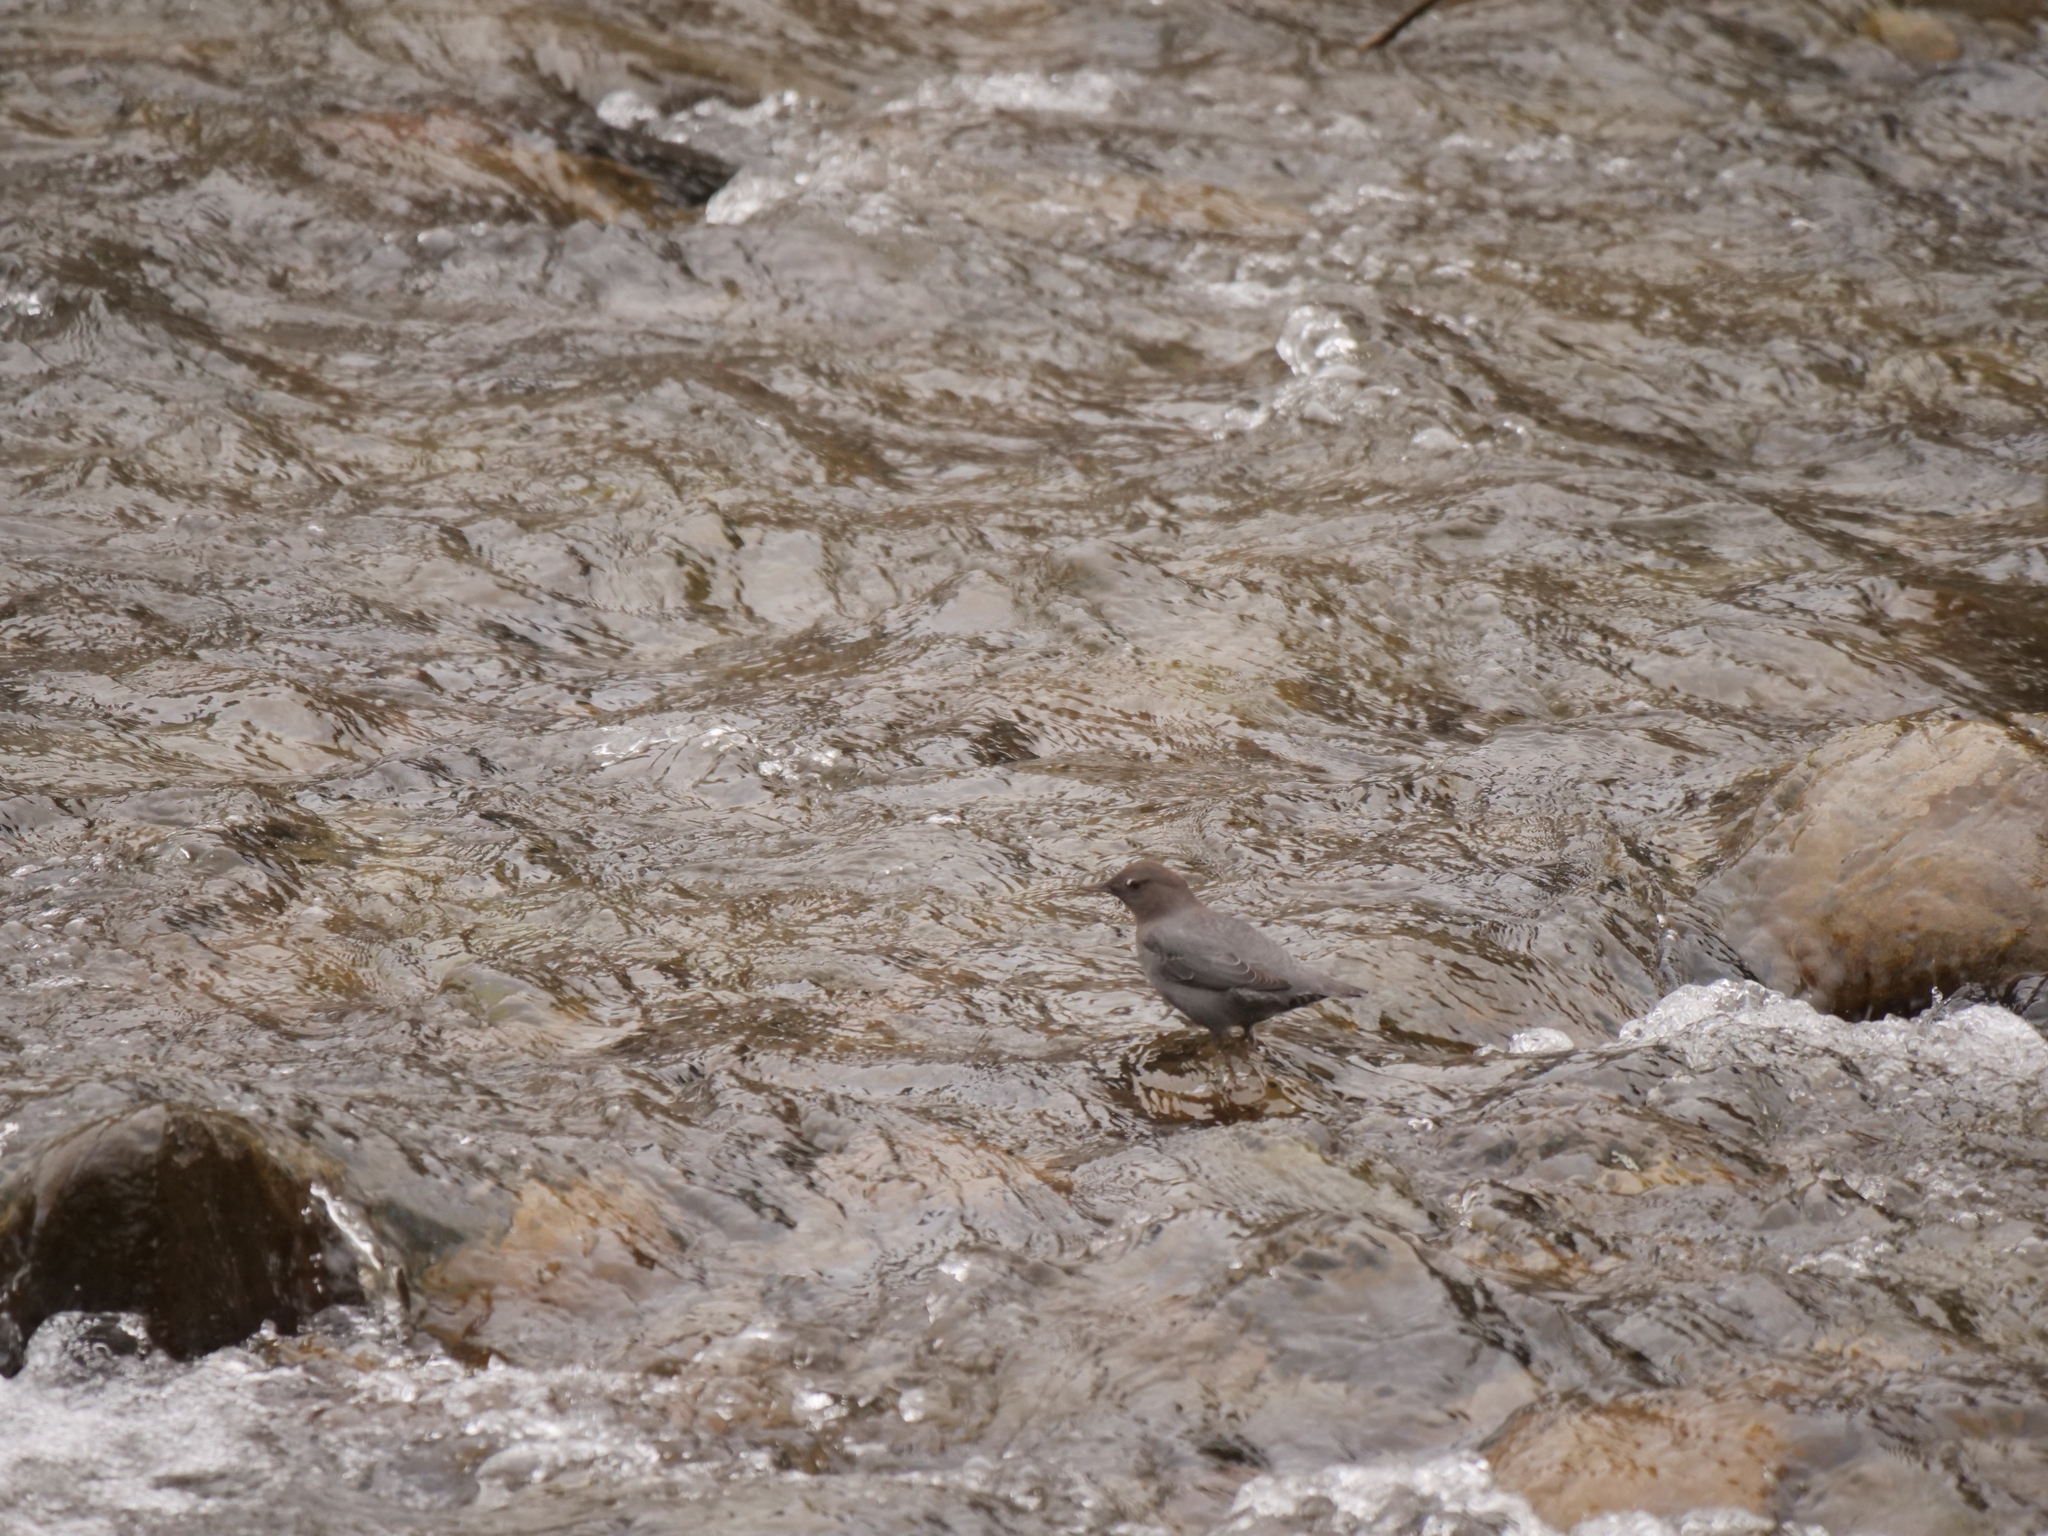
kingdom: Animalia
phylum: Chordata
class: Aves
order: Passeriformes
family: Cinclidae
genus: Cinclus
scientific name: Cinclus mexicanus
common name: American dipper
